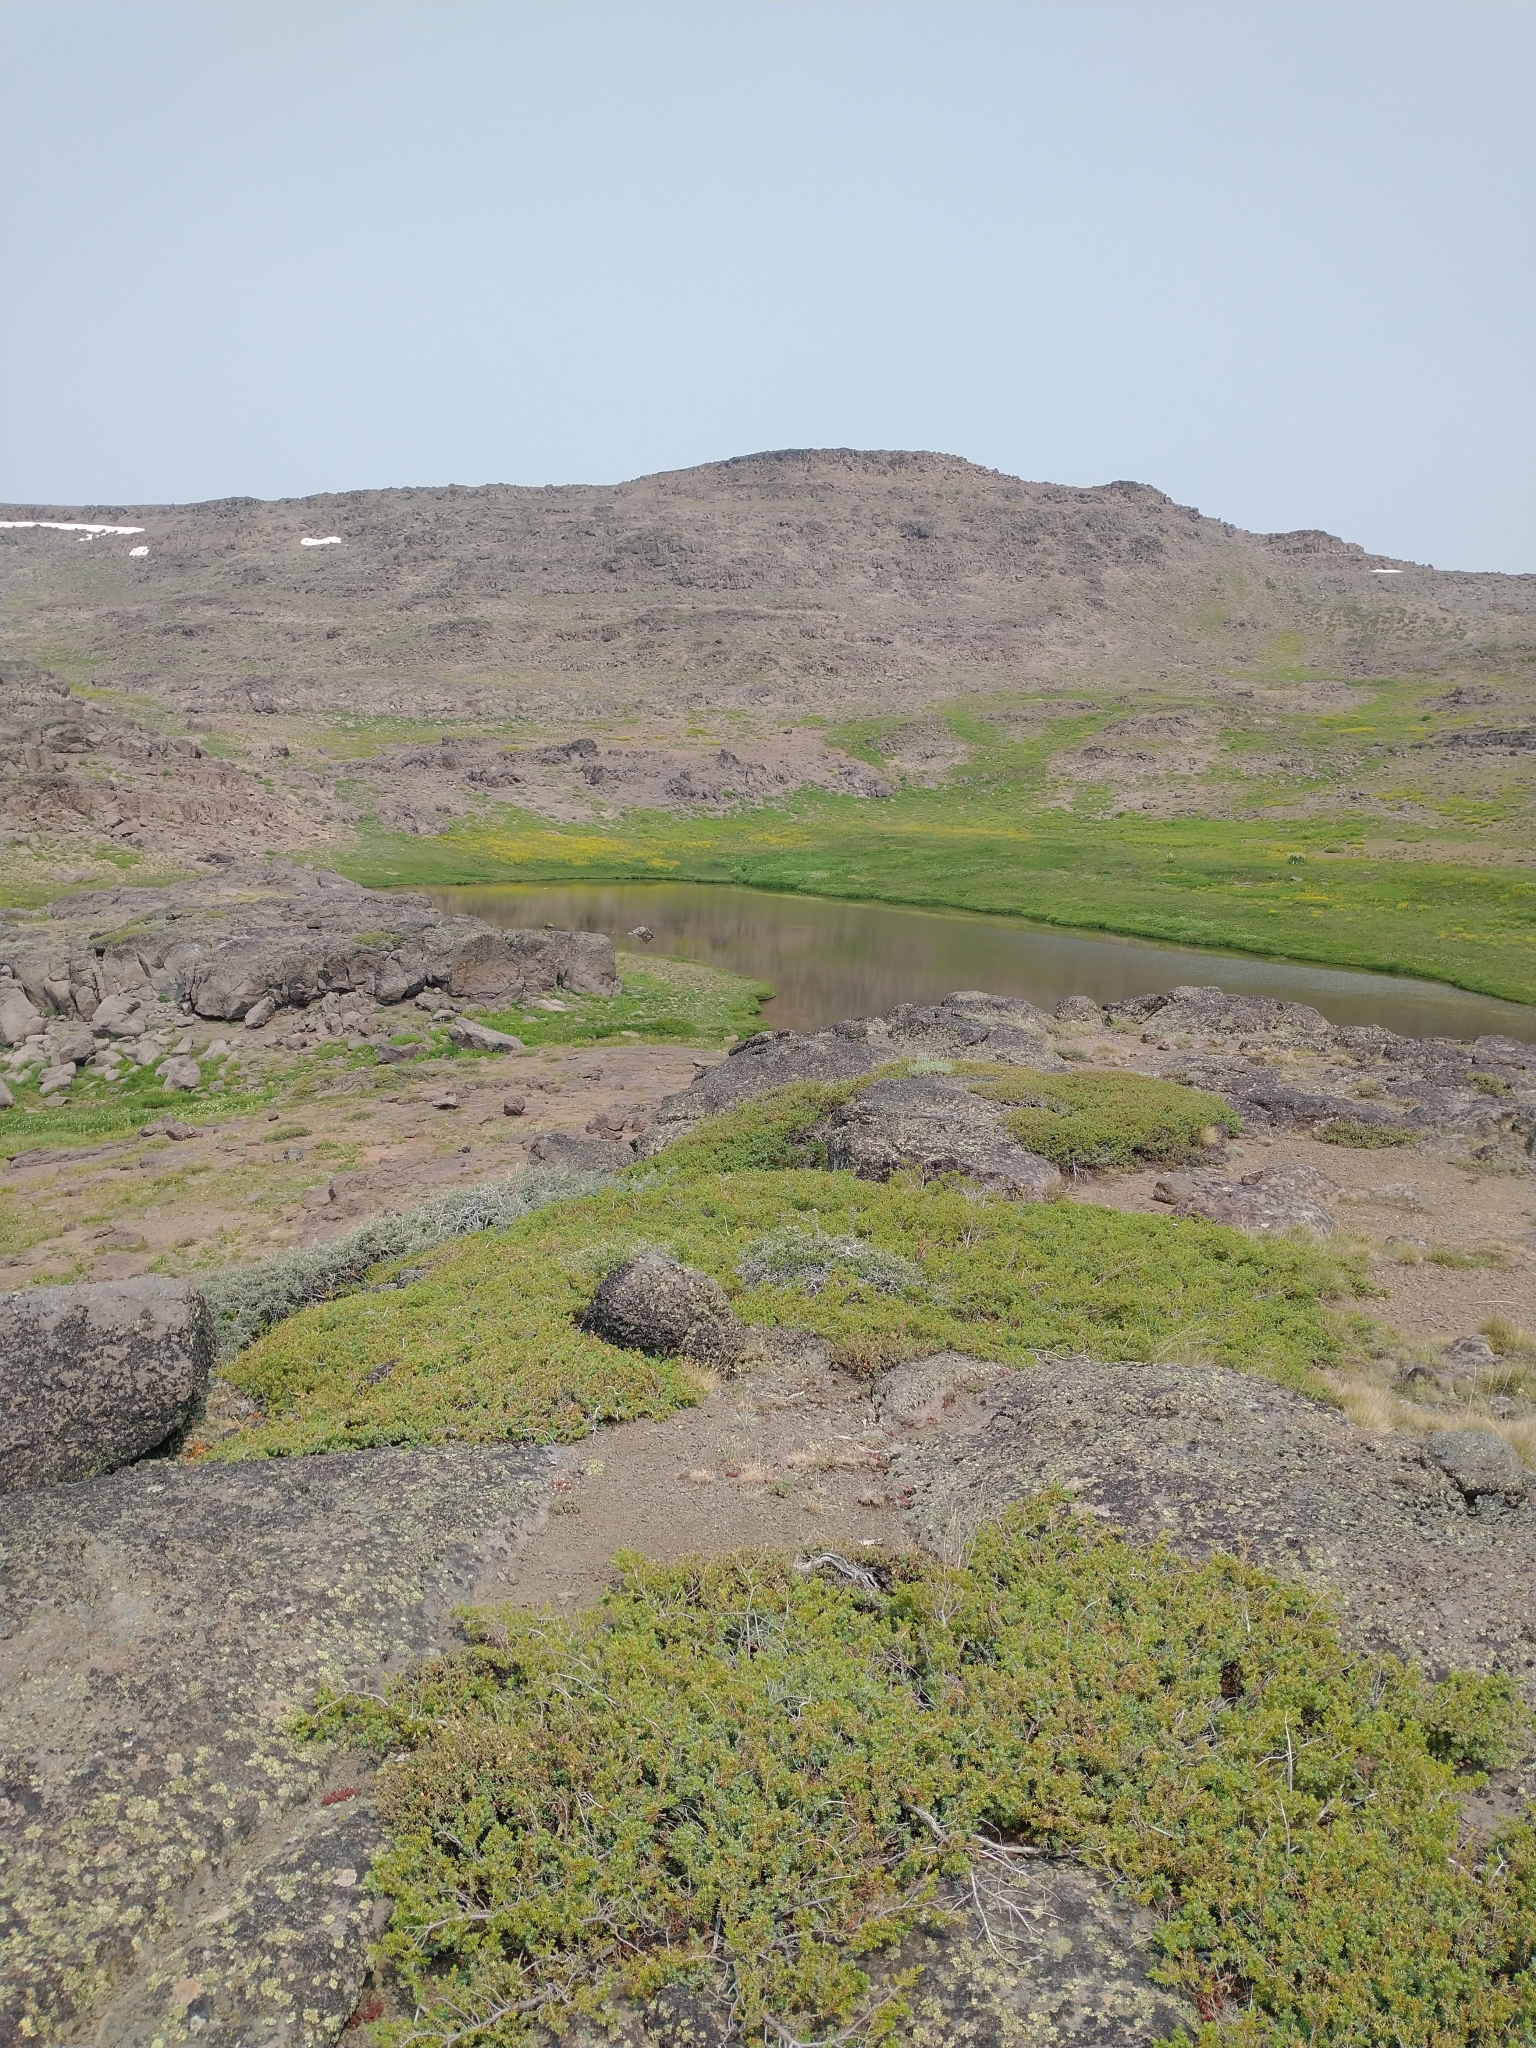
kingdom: Plantae
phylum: Tracheophyta
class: Pinopsida
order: Pinales
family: Cupressaceae
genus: Juniperus
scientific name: Juniperus communis
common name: Common juniper
